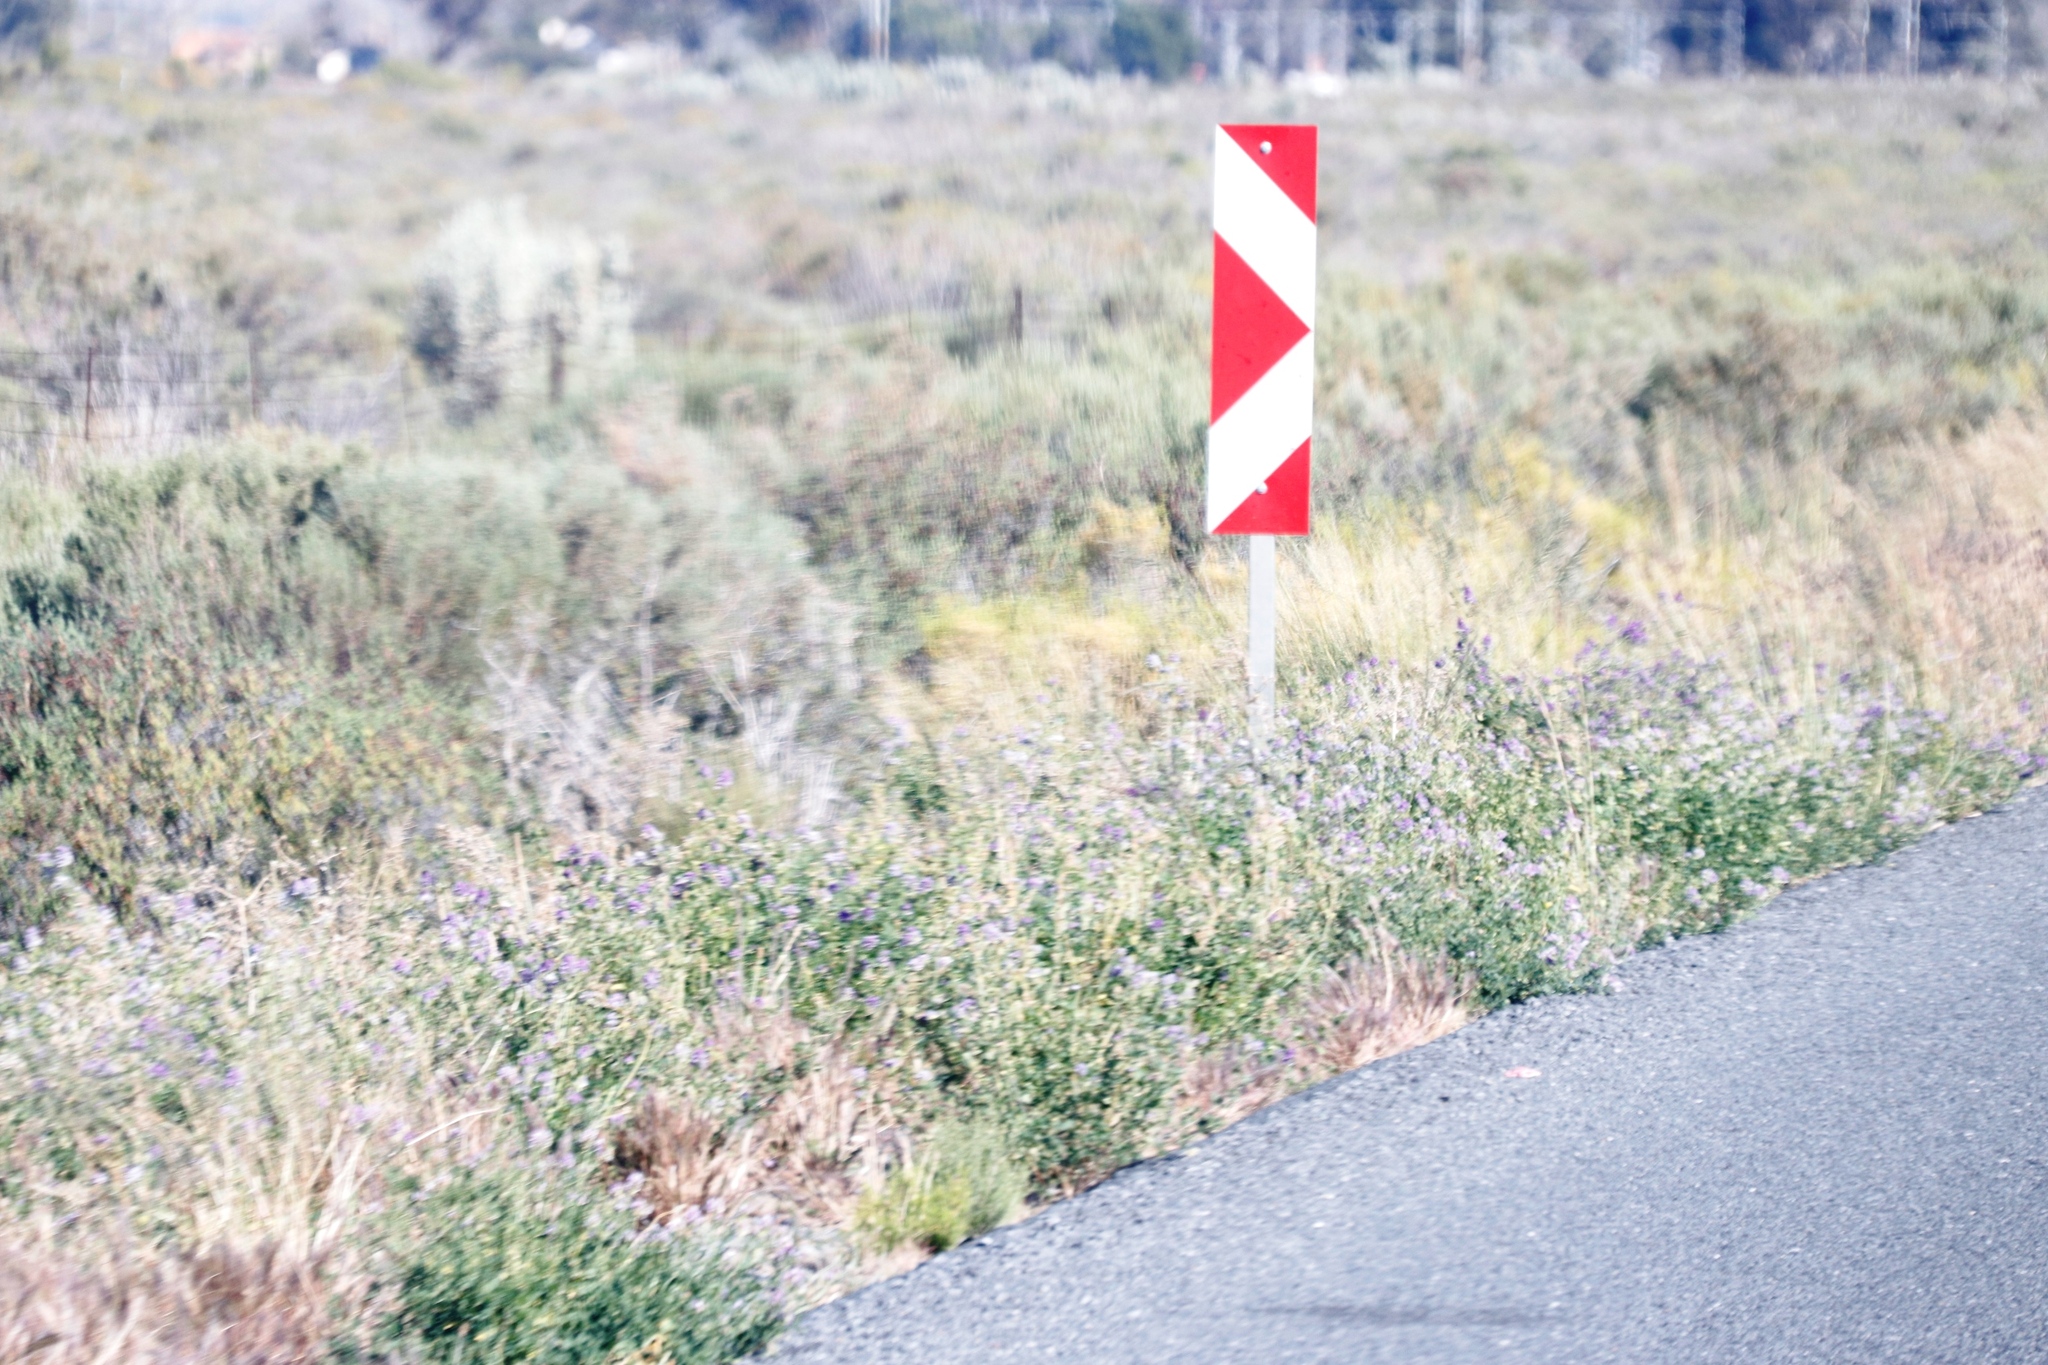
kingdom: Plantae
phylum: Tracheophyta
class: Magnoliopsida
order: Fabales
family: Fabaceae
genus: Medicago
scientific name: Medicago sativa
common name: Alfalfa
